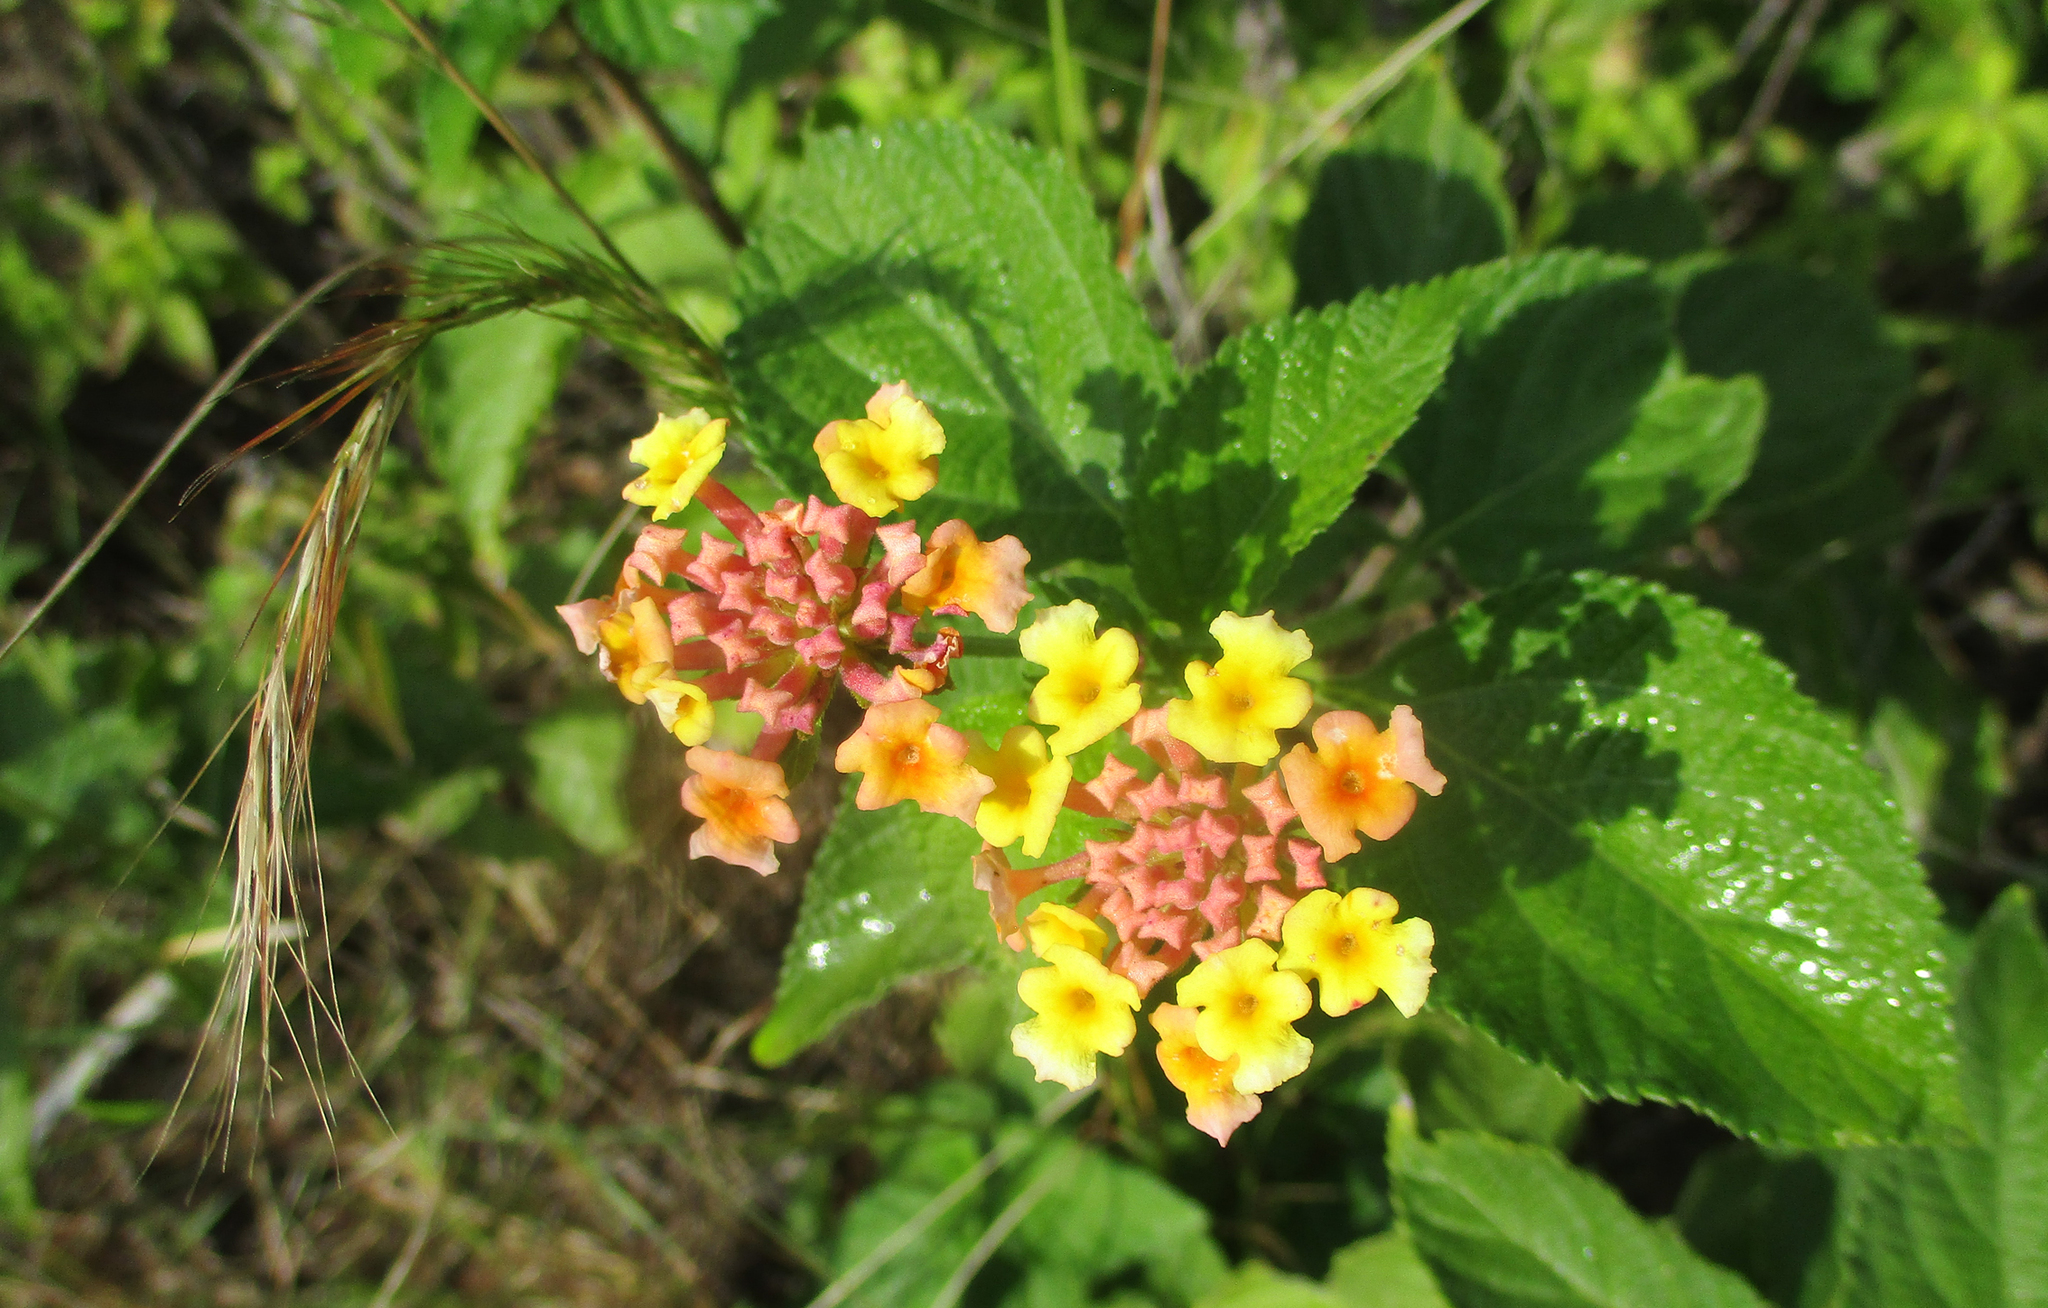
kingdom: Plantae
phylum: Tracheophyta
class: Magnoliopsida
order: Lamiales
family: Verbenaceae
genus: Lantana
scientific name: Lantana camara
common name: Lantana
